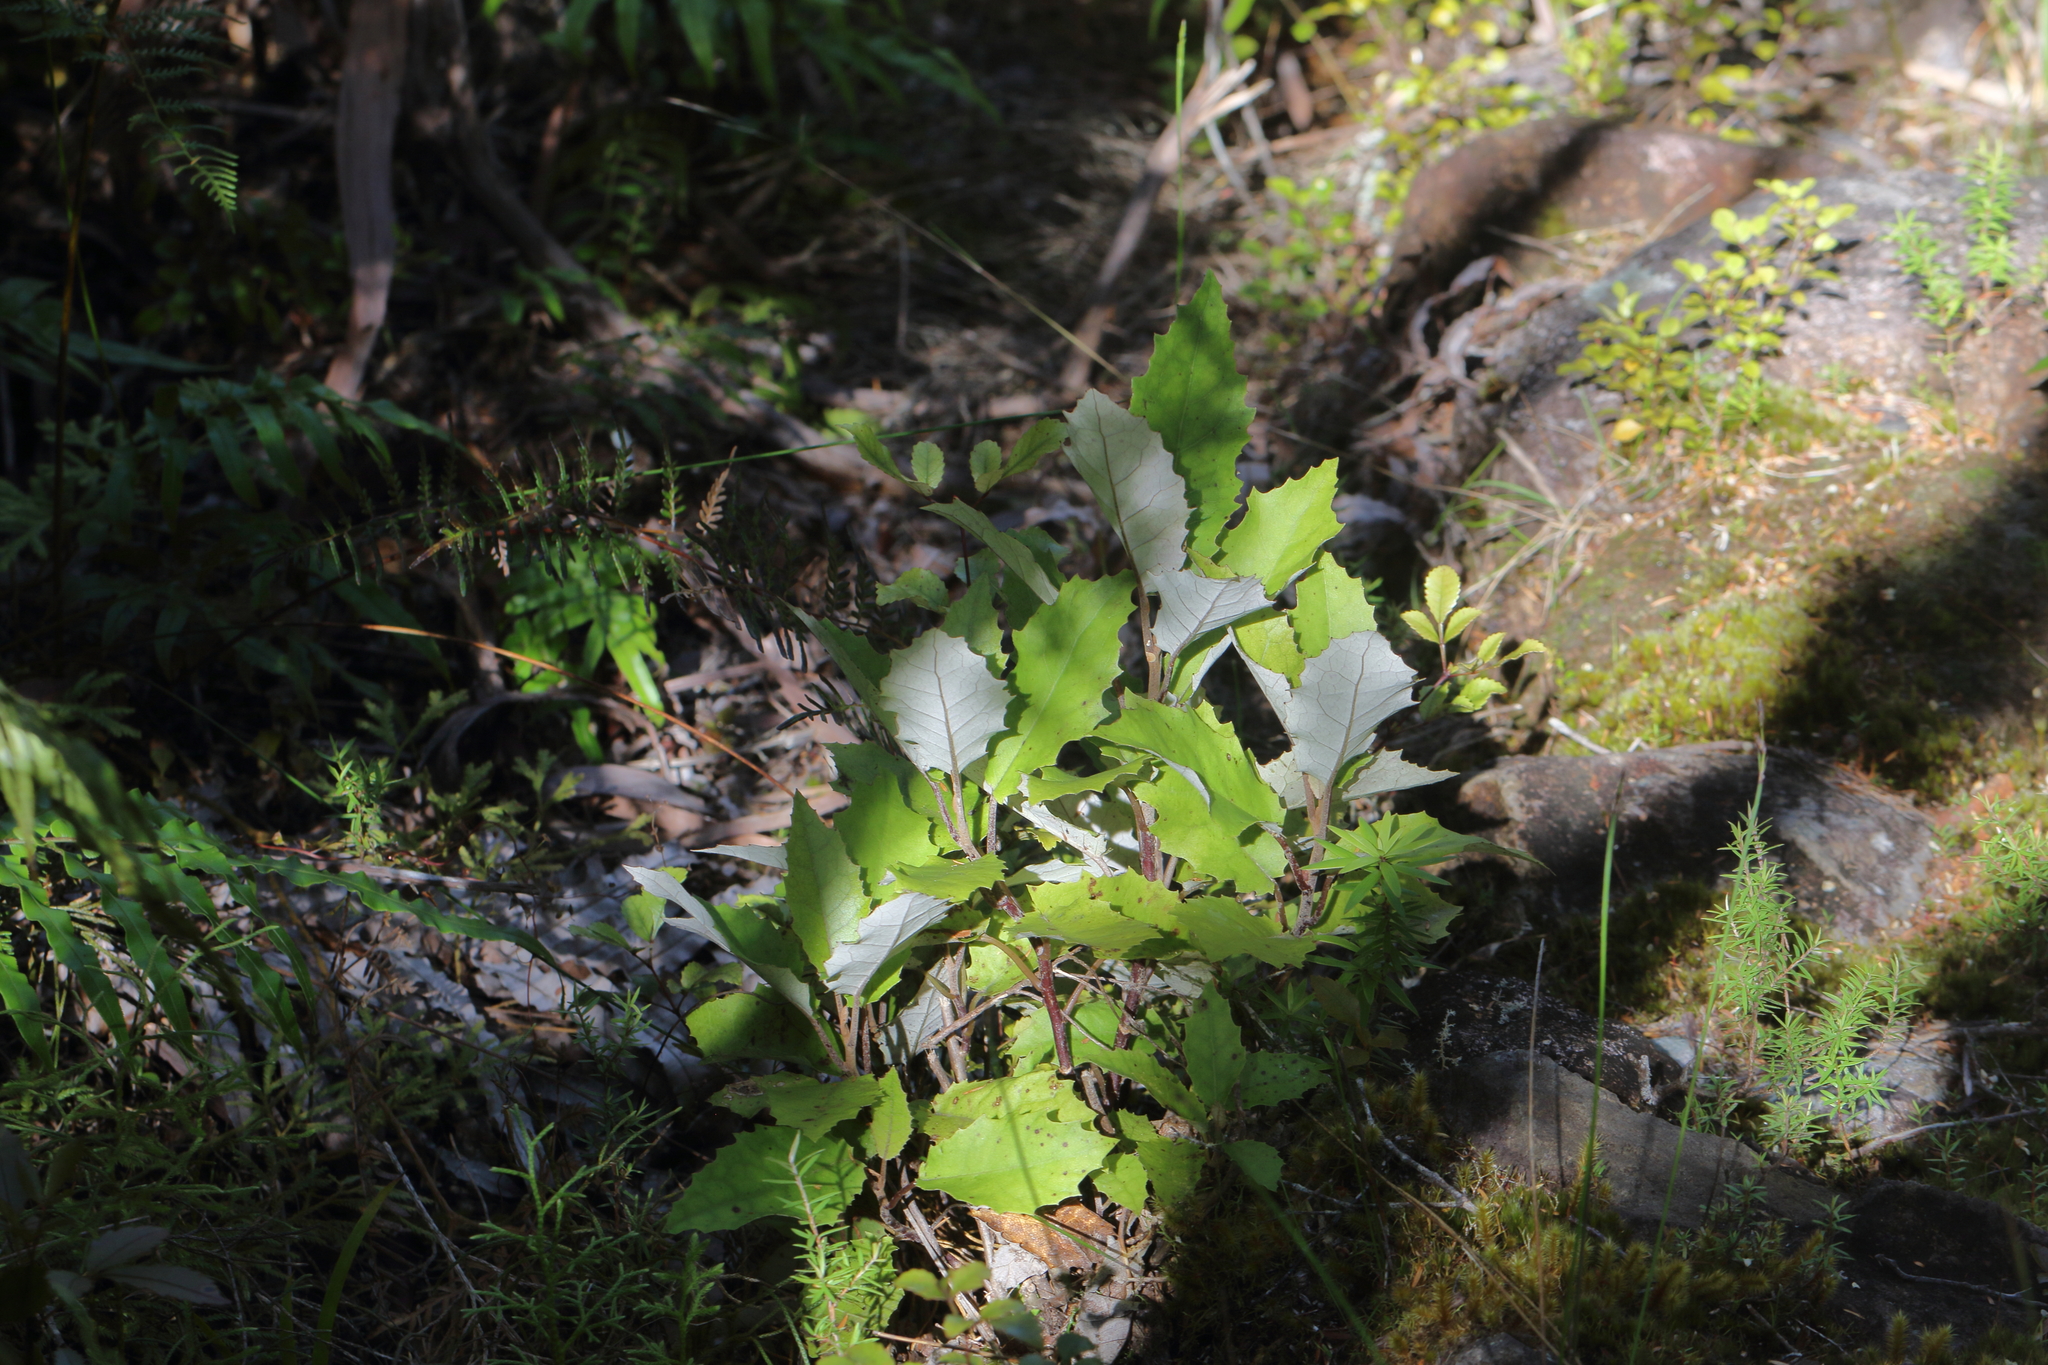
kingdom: Plantae
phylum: Tracheophyta
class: Magnoliopsida
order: Asterales
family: Asteraceae
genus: Olearia
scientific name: Olearia rani
